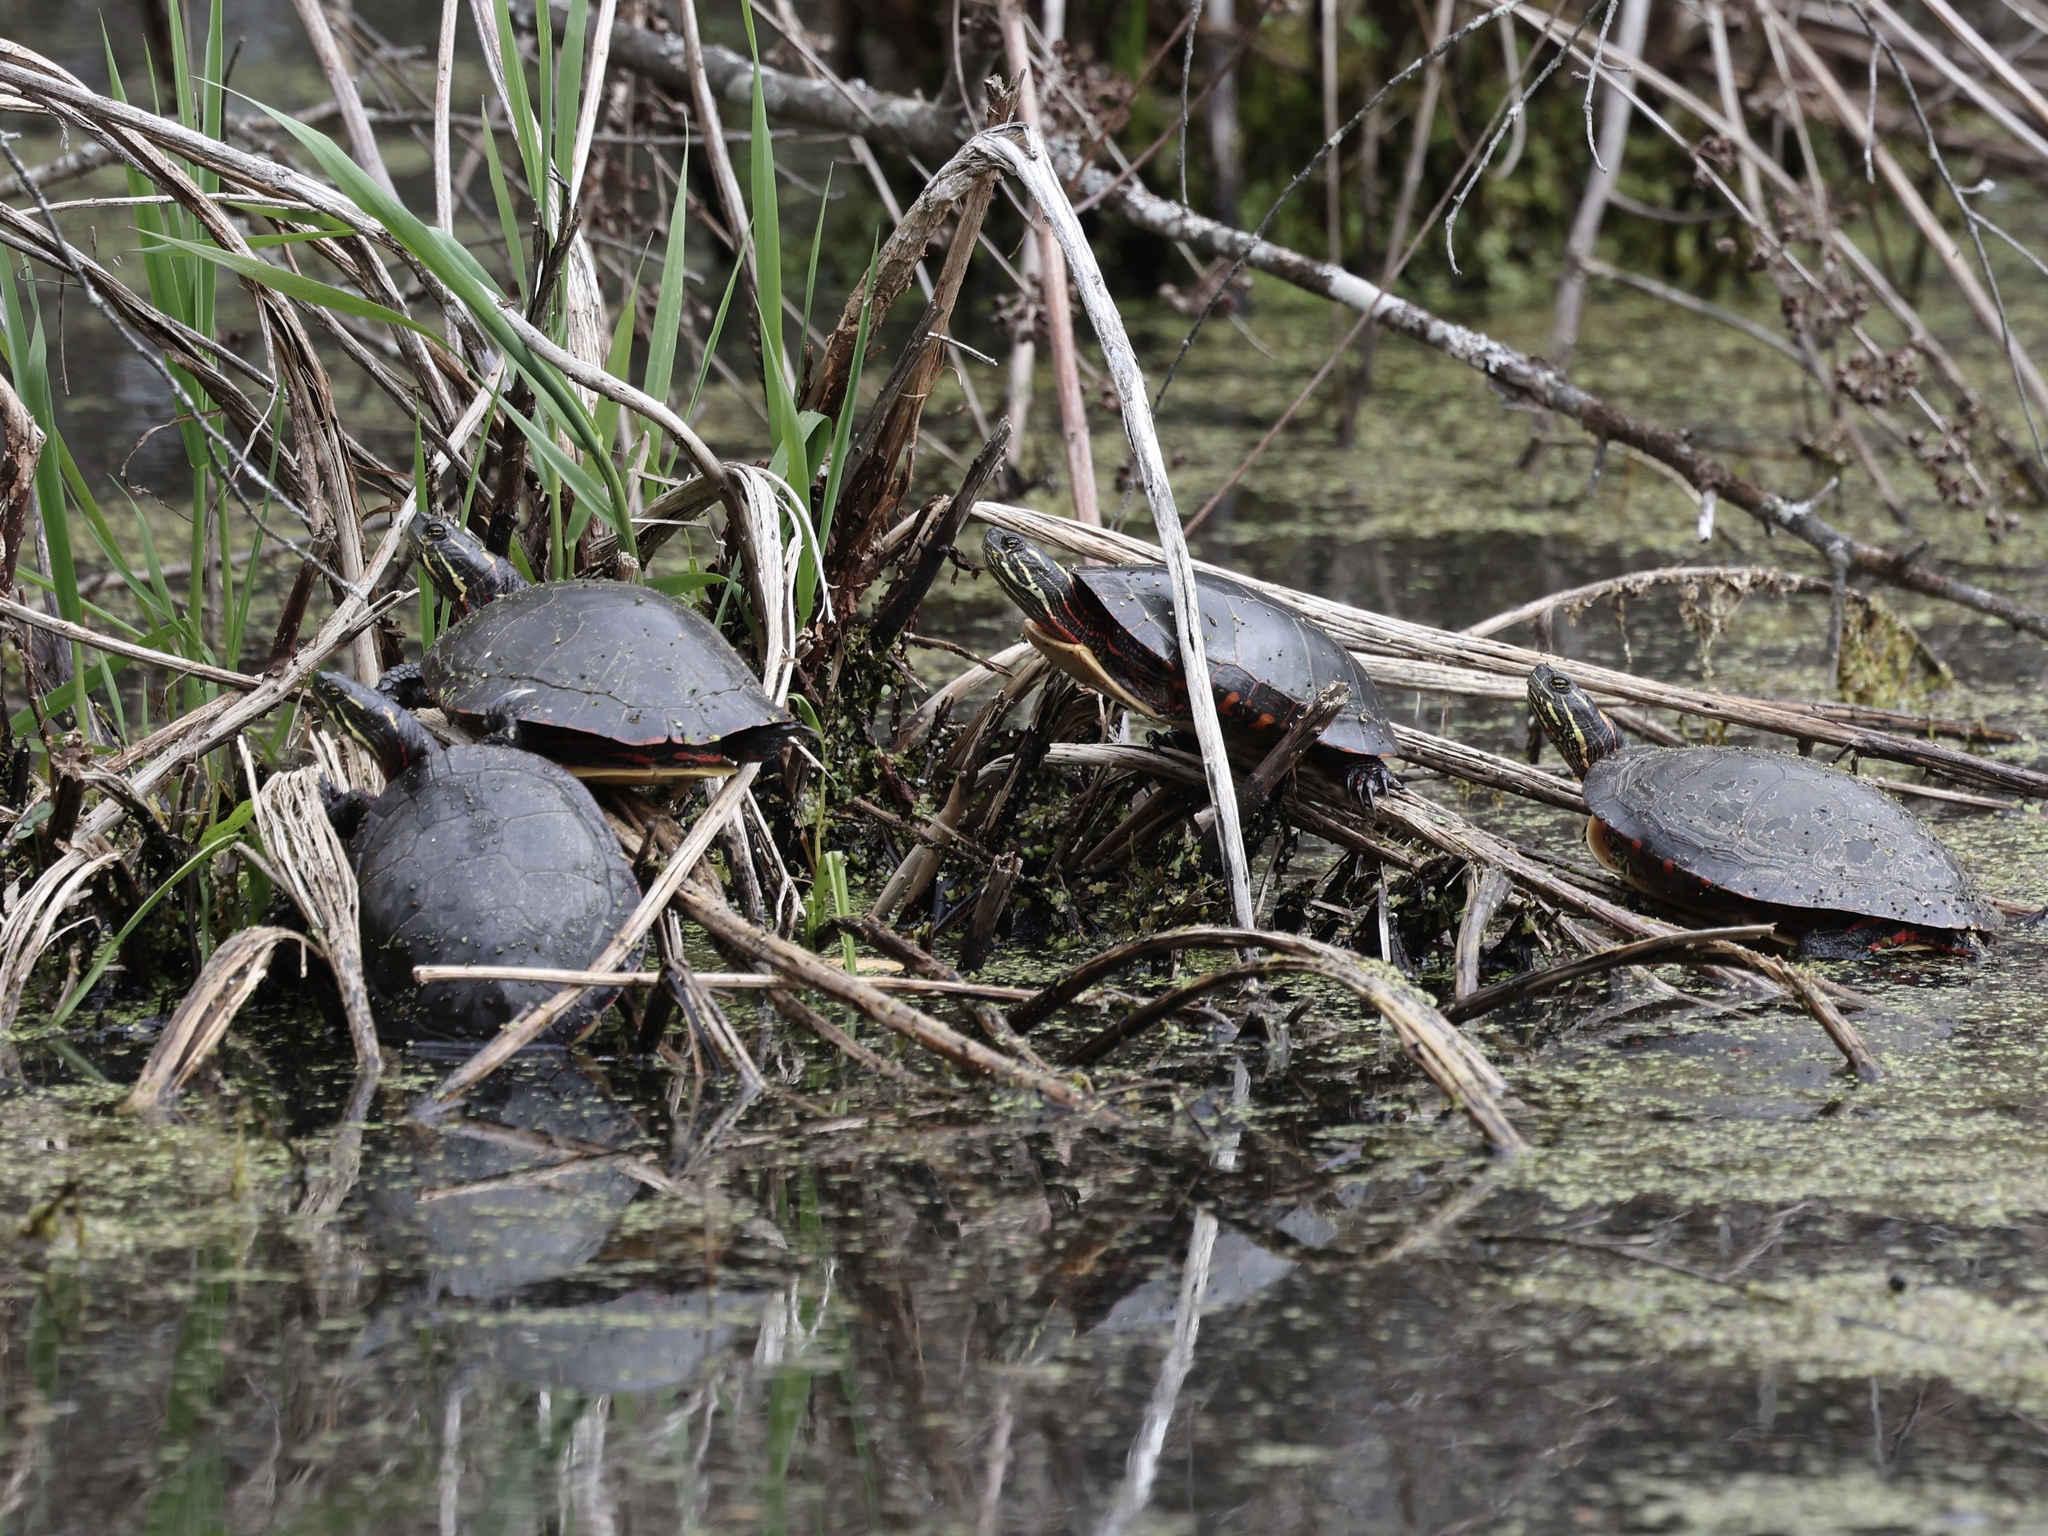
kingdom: Animalia
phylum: Chordata
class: Testudines
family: Emydidae
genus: Chrysemys
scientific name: Chrysemys picta
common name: Painted turtle
